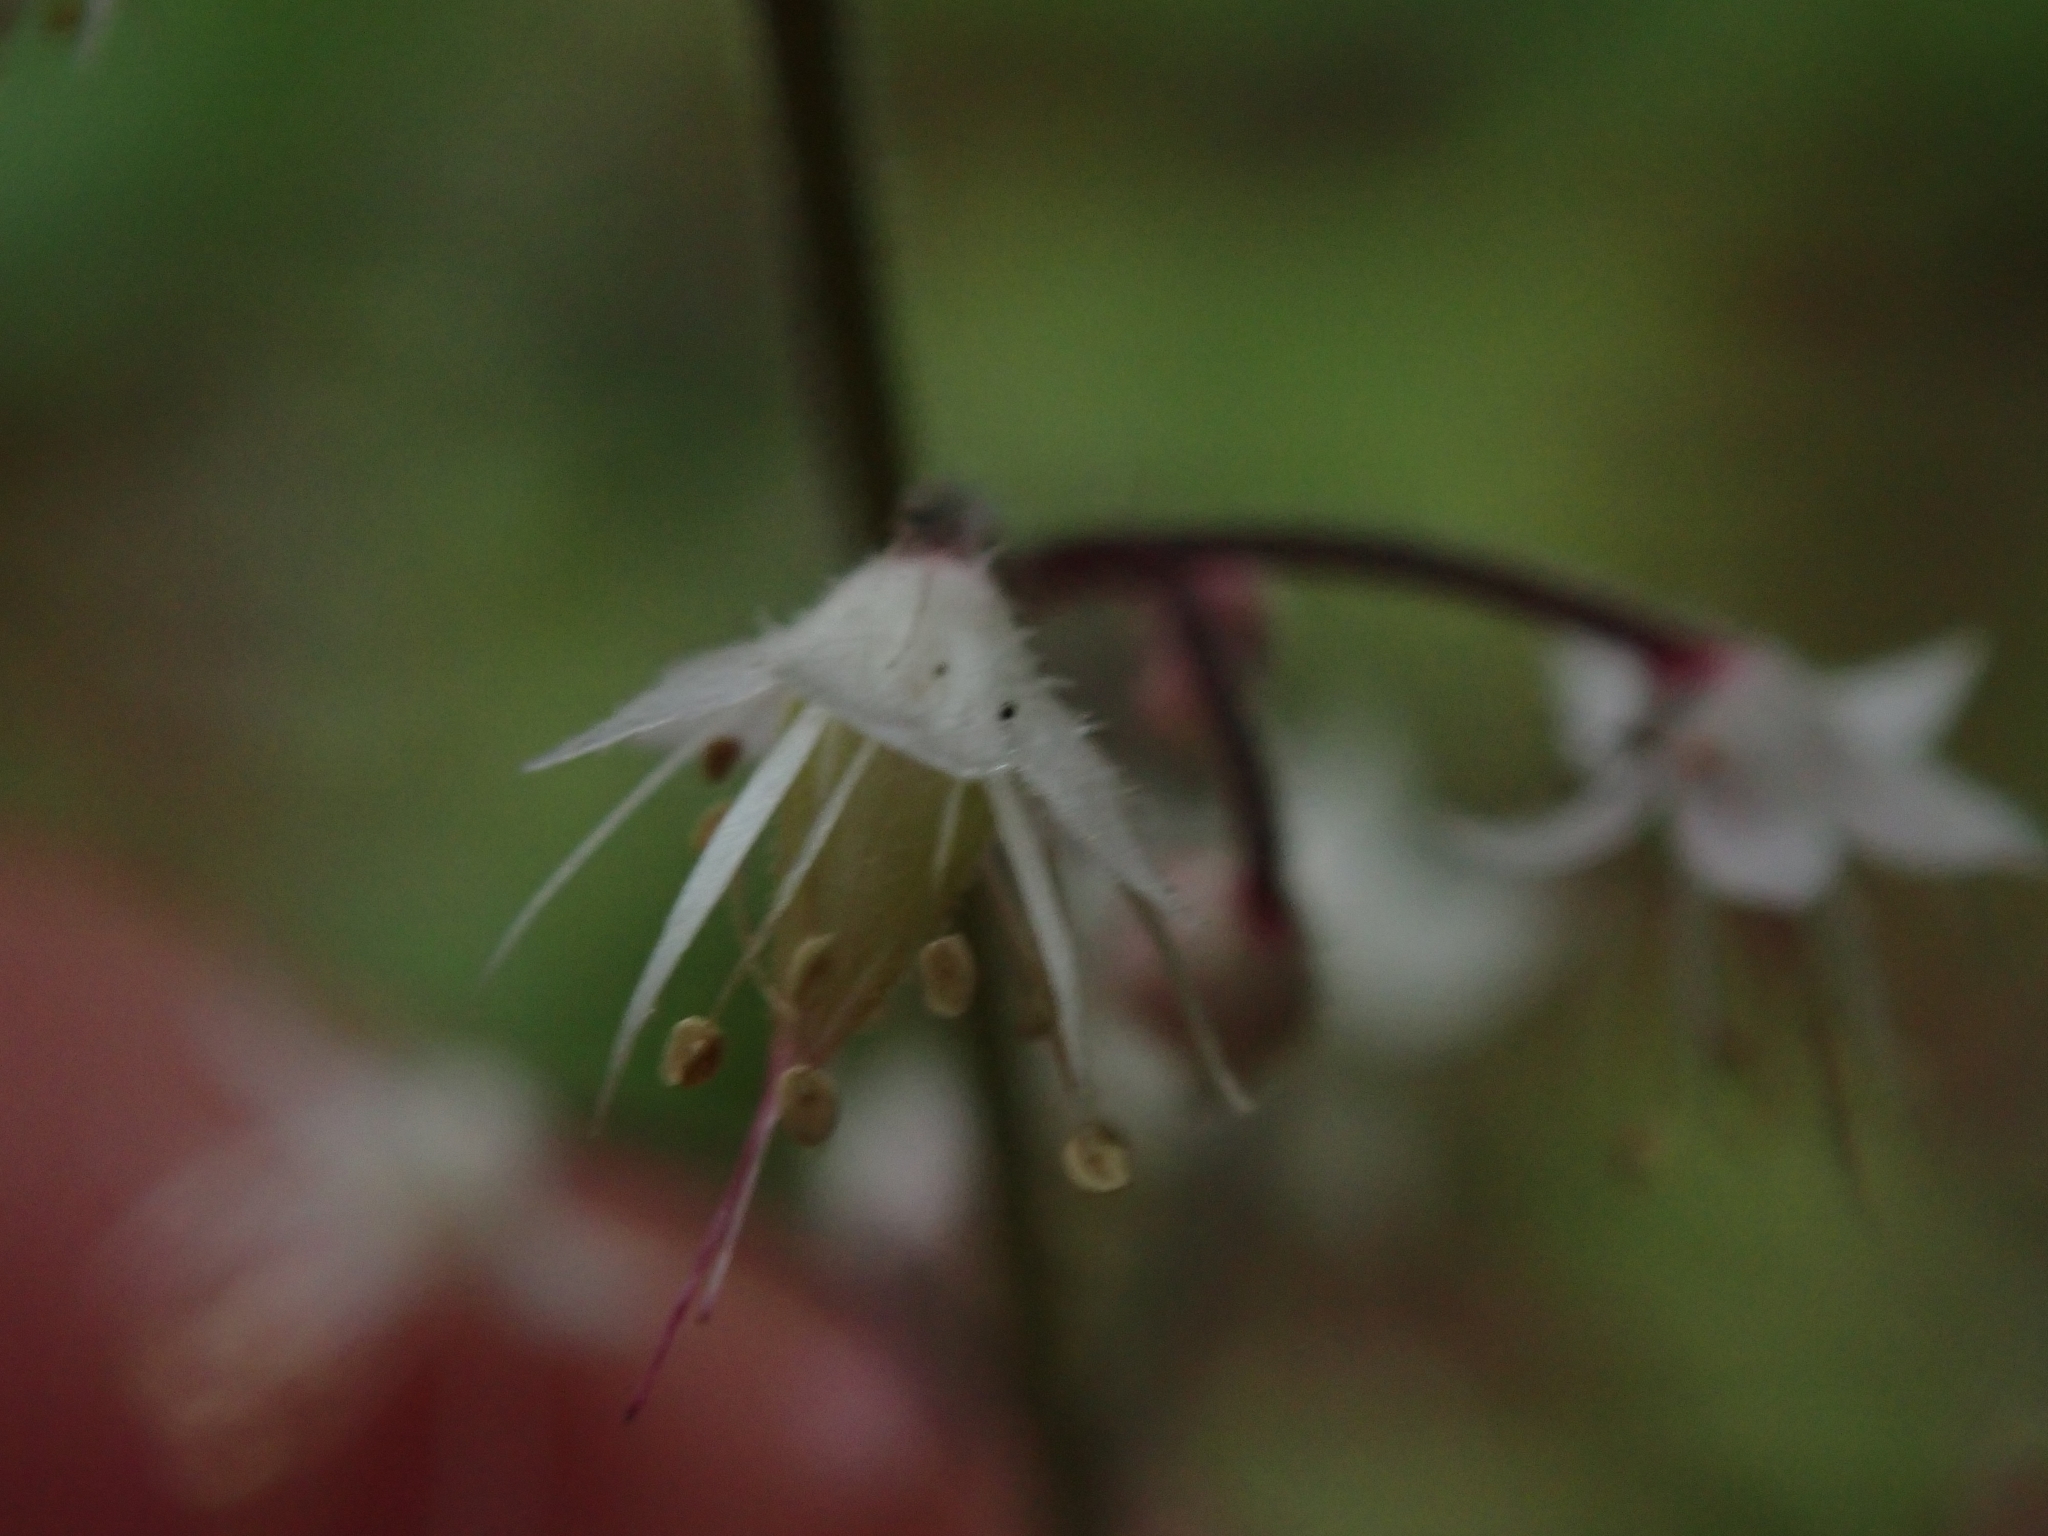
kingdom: Plantae
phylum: Tracheophyta
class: Magnoliopsida
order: Saxifragales
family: Saxifragaceae
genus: Tiarella
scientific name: Tiarella trifoliata
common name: Sugar-scoop
